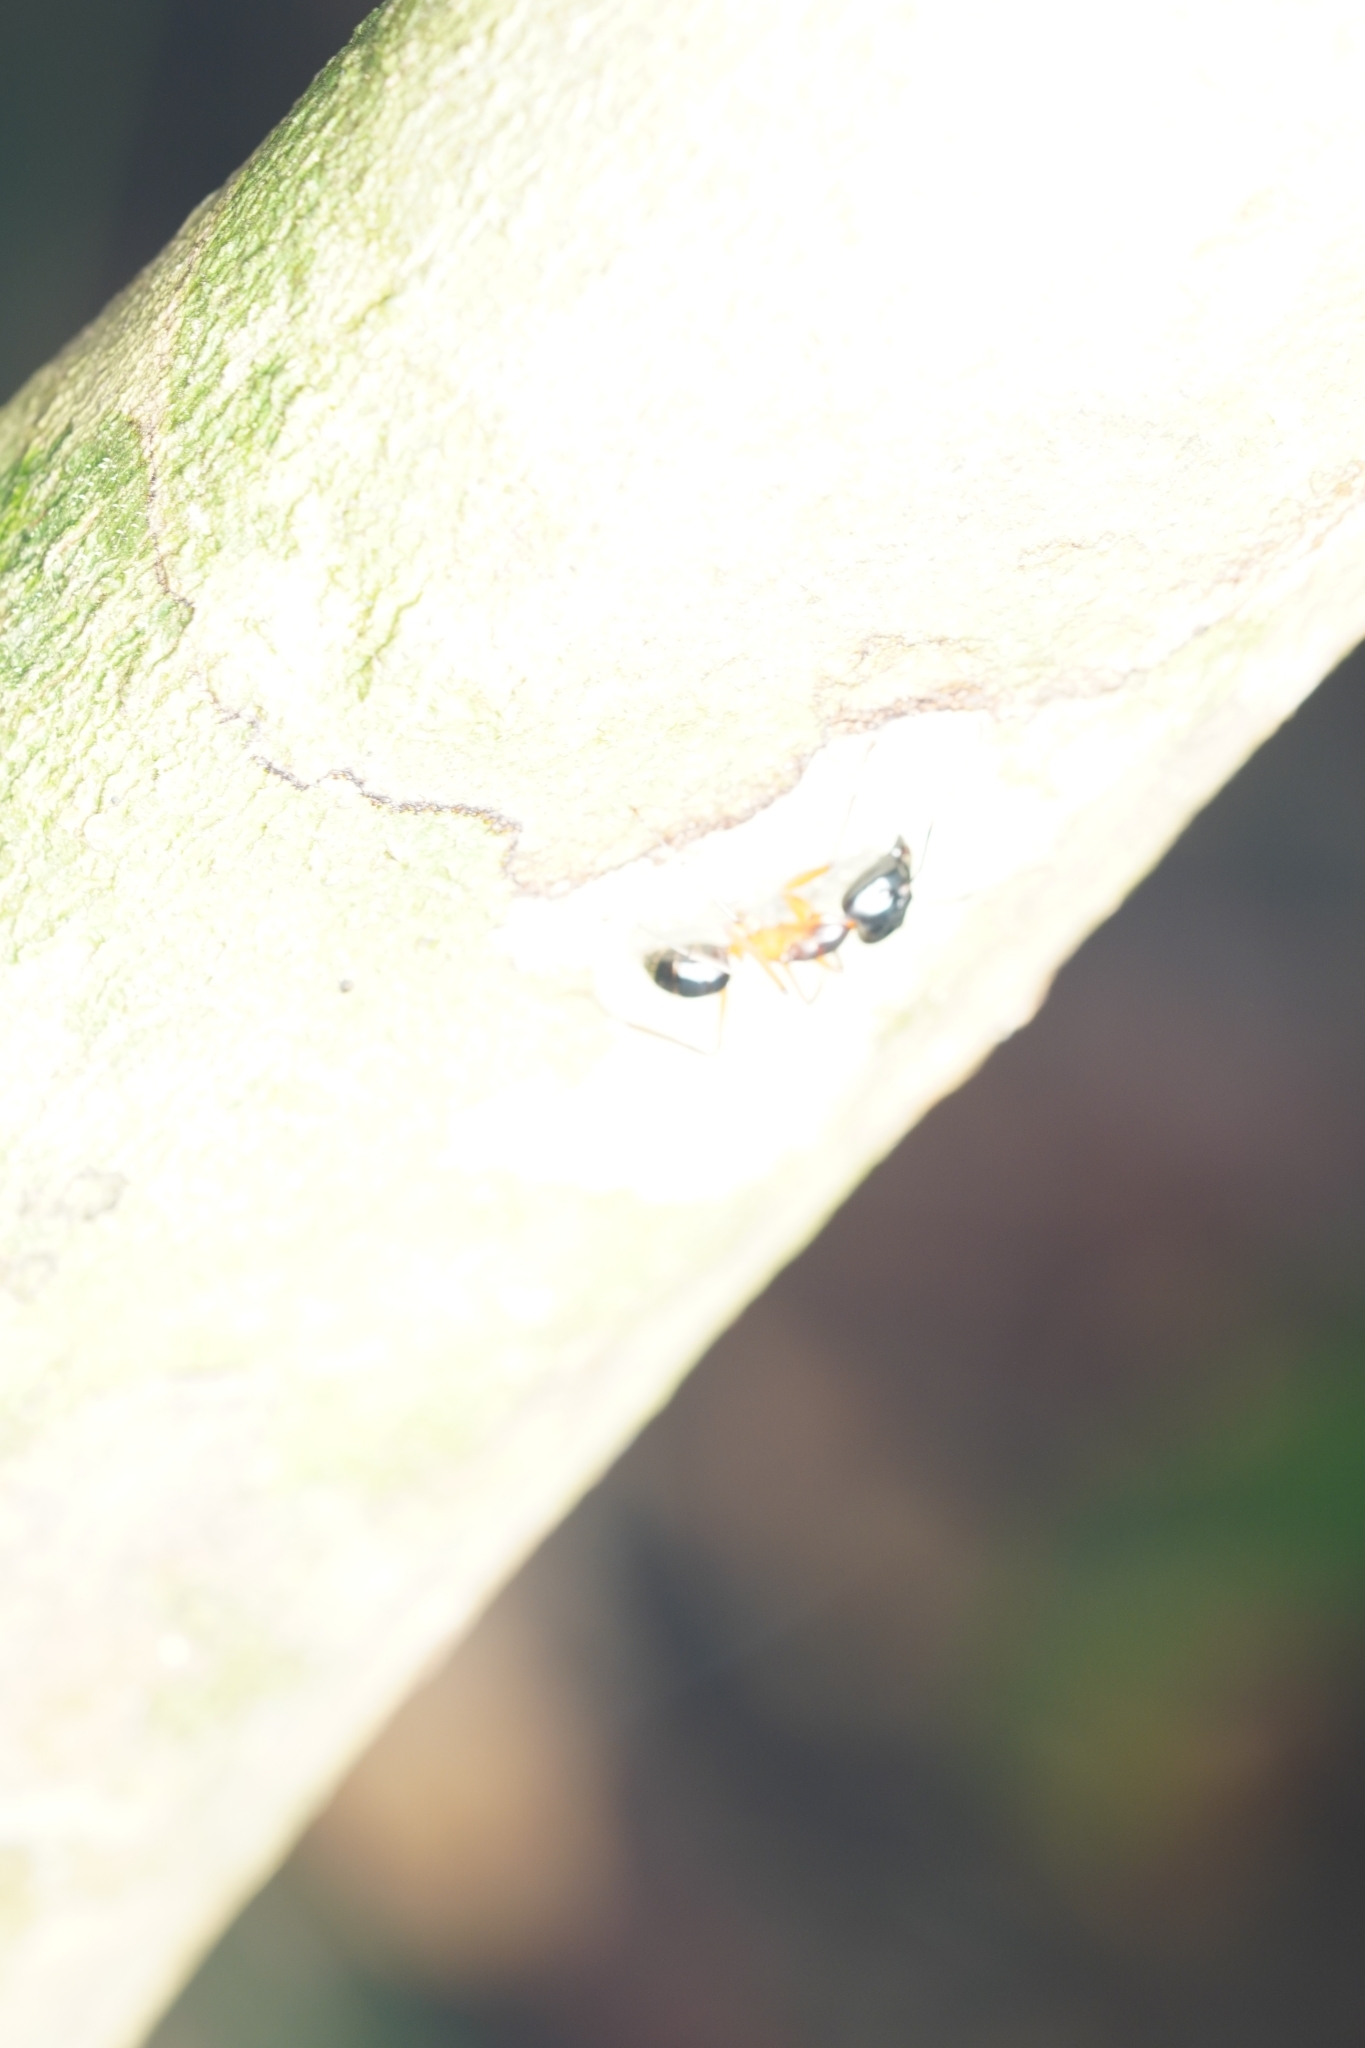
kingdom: Animalia
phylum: Arthropoda
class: Insecta
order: Hymenoptera
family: Formicidae
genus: Camponotus
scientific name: Camponotus festinus
